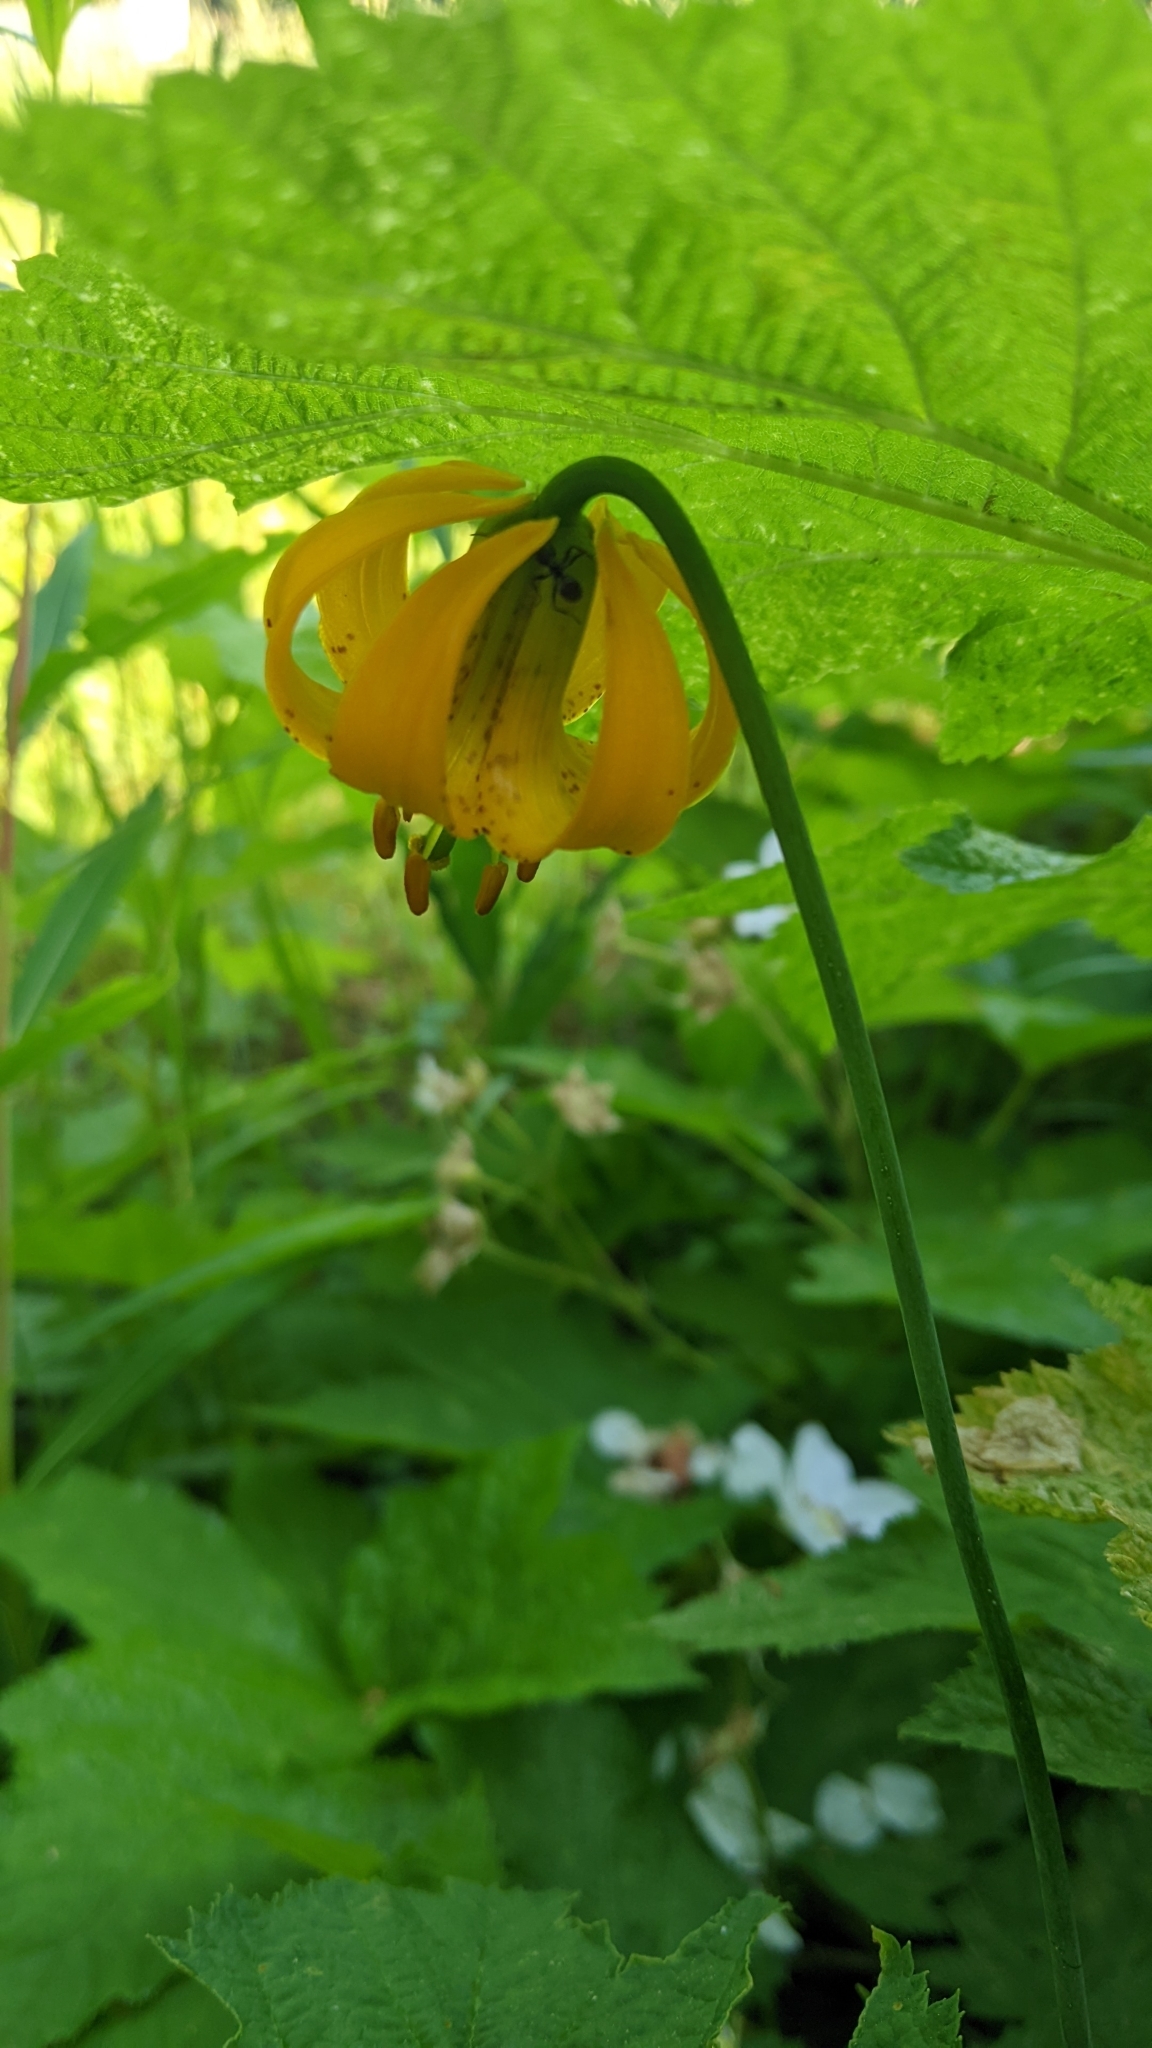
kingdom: Plantae
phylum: Tracheophyta
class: Liliopsida
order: Liliales
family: Liliaceae
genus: Lilium
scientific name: Lilium columbianum
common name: Columbia lily
